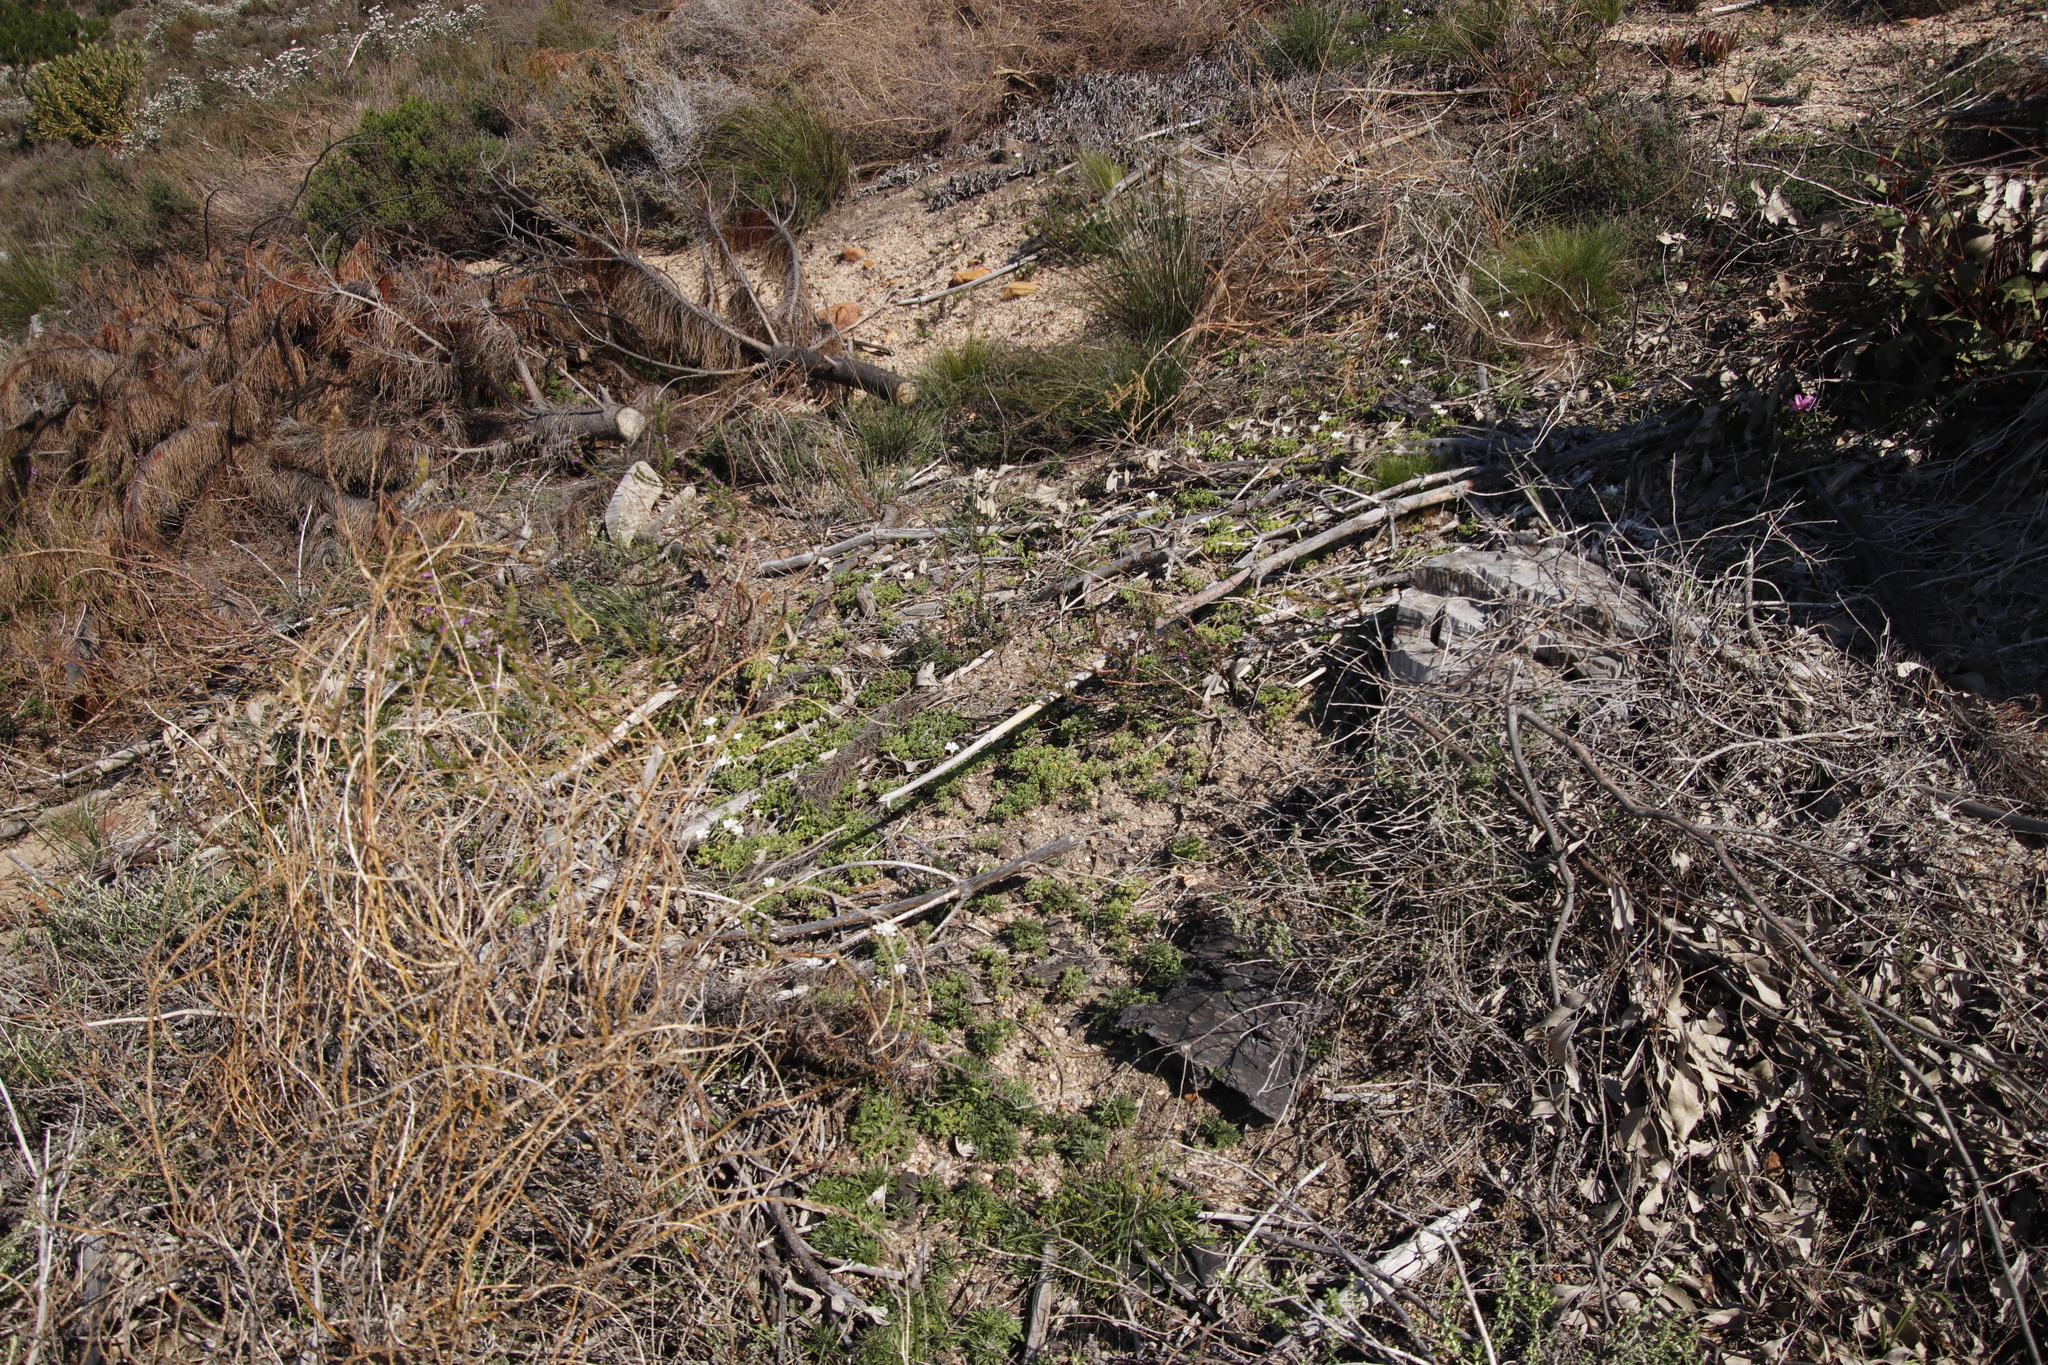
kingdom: Plantae
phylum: Tracheophyta
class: Magnoliopsida
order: Oxalidales
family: Oxalidaceae
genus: Oxalis
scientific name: Oxalis lanata
